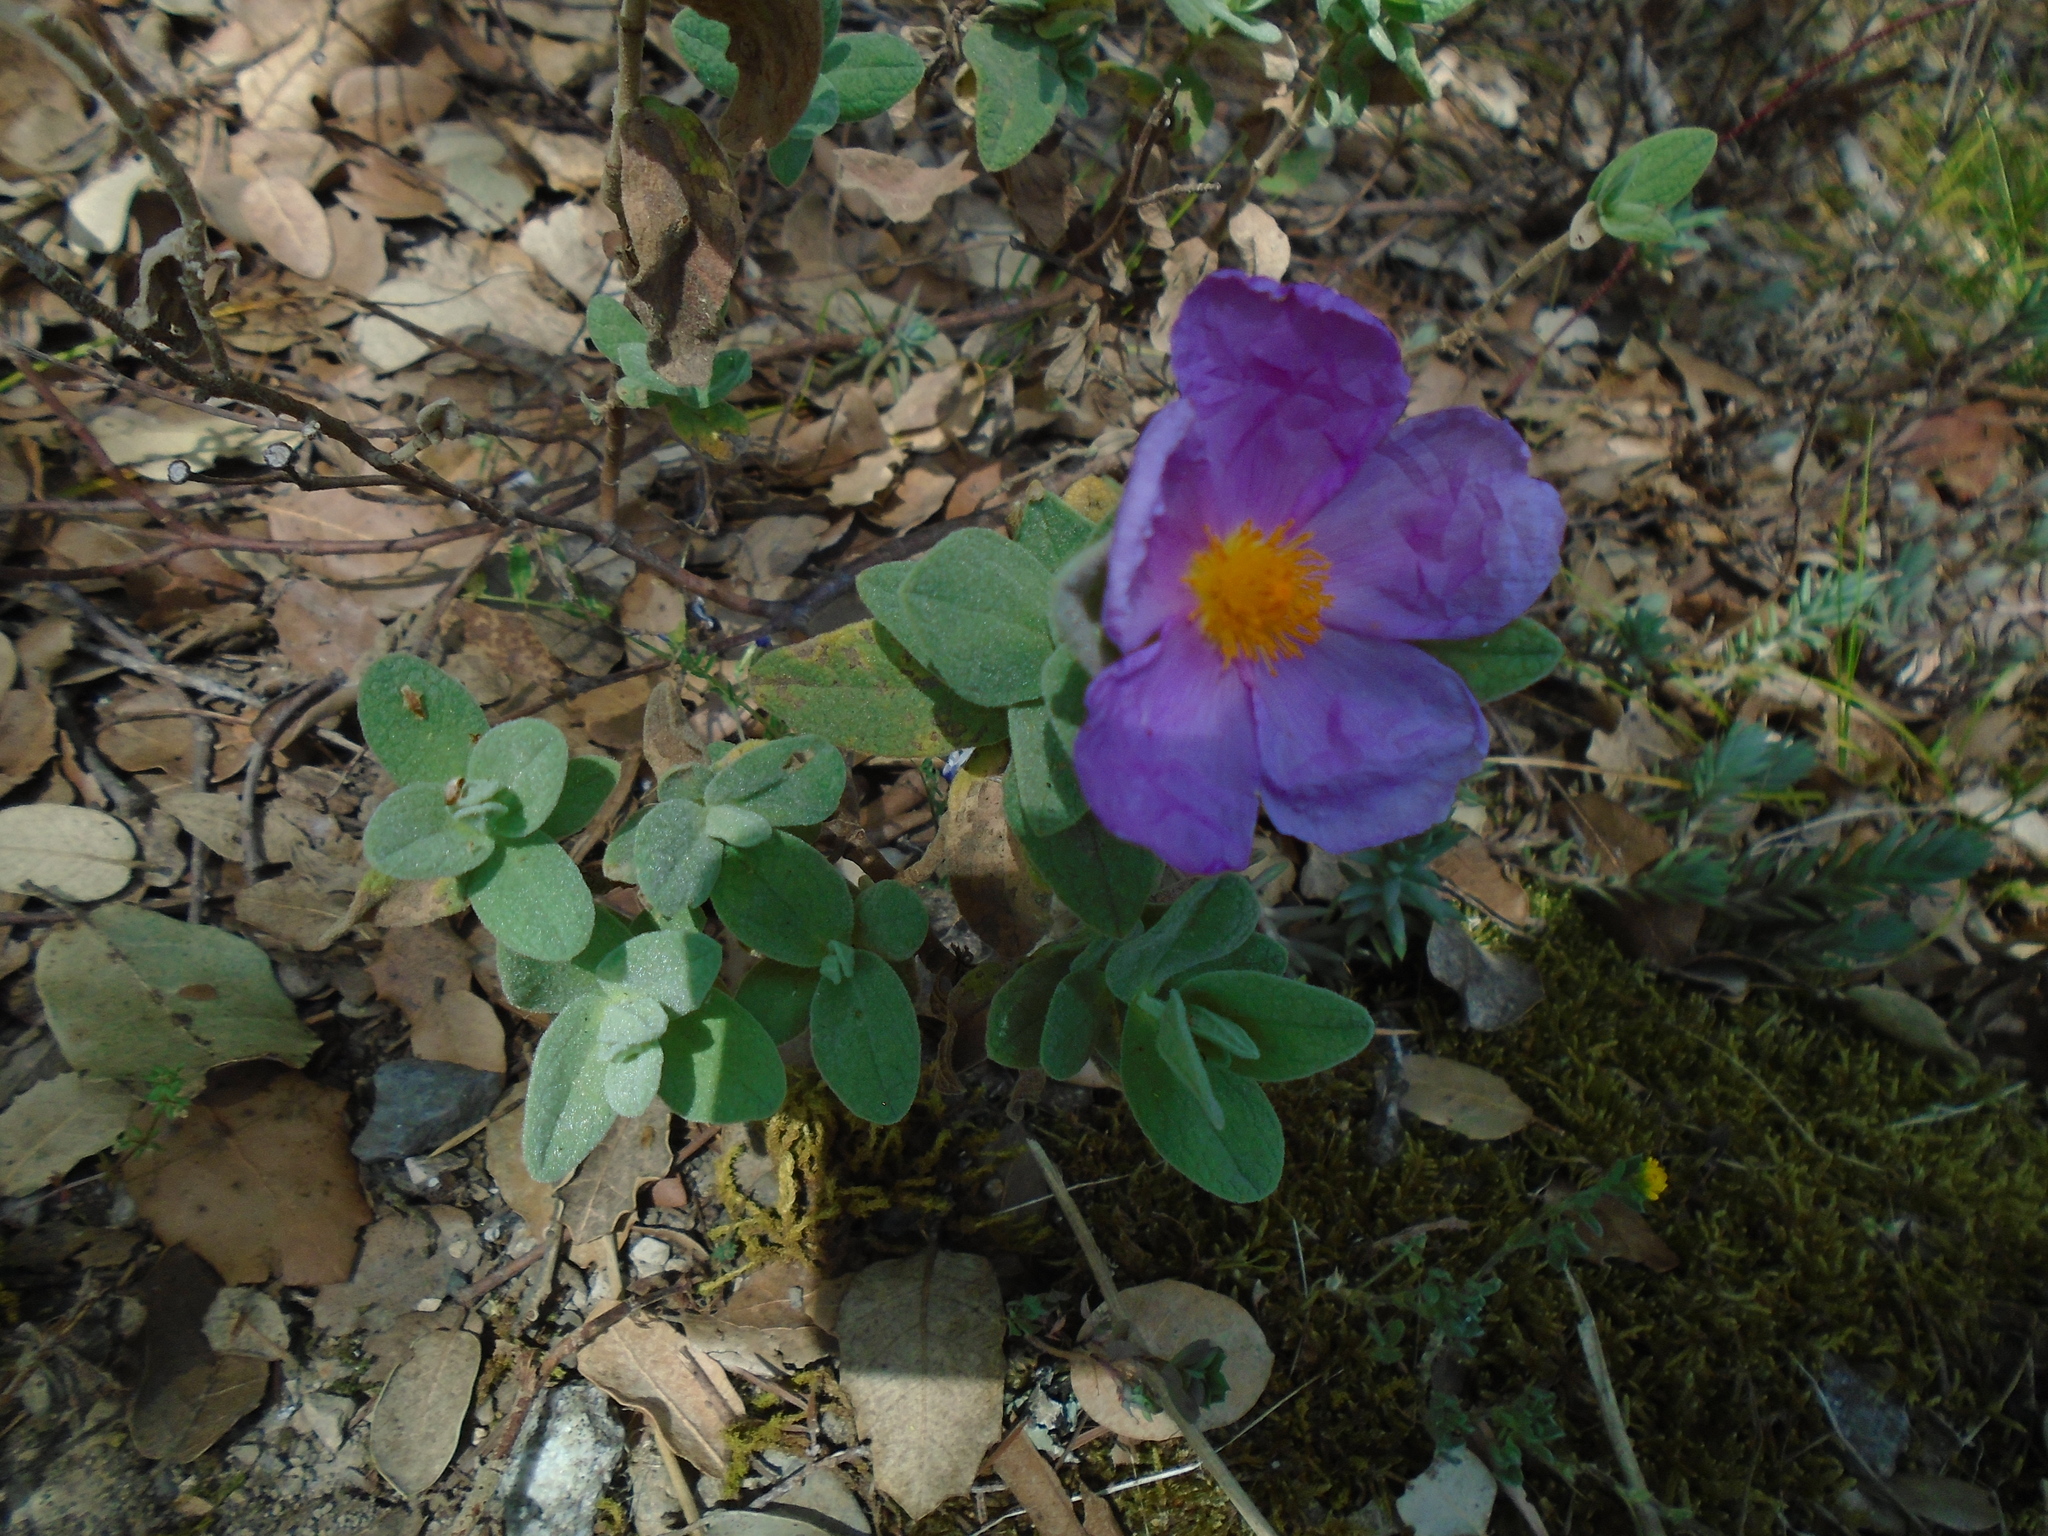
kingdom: Plantae
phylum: Tracheophyta
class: Magnoliopsida
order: Malvales
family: Cistaceae
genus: Cistus
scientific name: Cistus albidus
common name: White-leaf rock-rose
